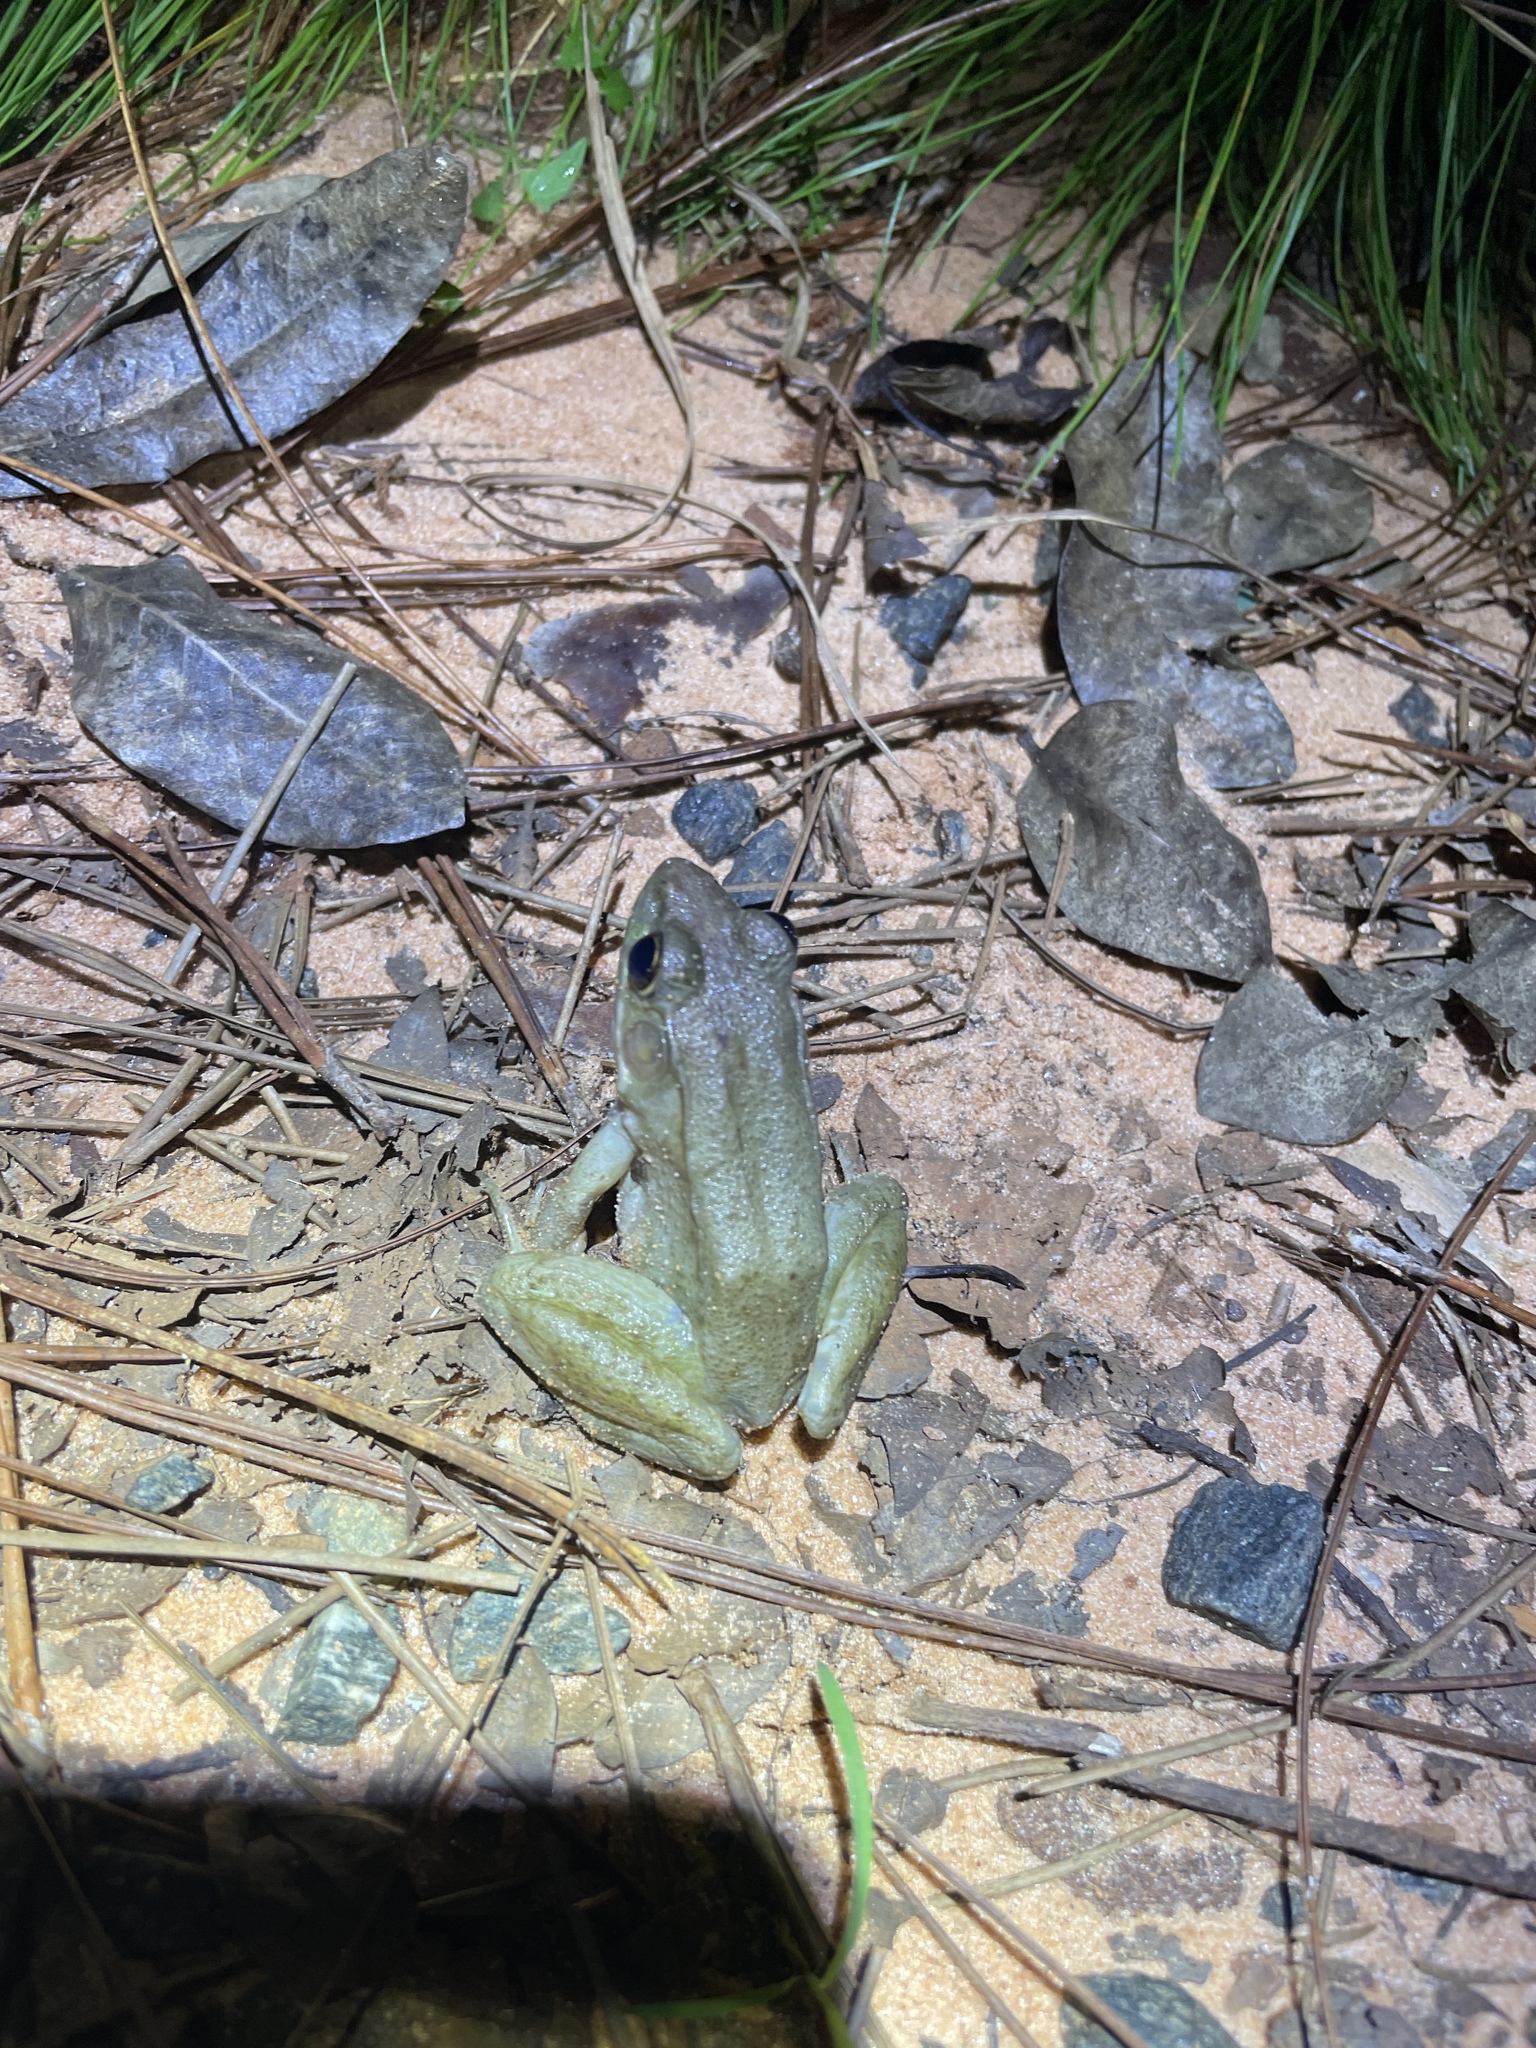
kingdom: Animalia
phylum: Chordata
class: Amphibia
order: Anura
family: Ranidae
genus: Lithobates
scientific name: Lithobates clamitans
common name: Green frog
